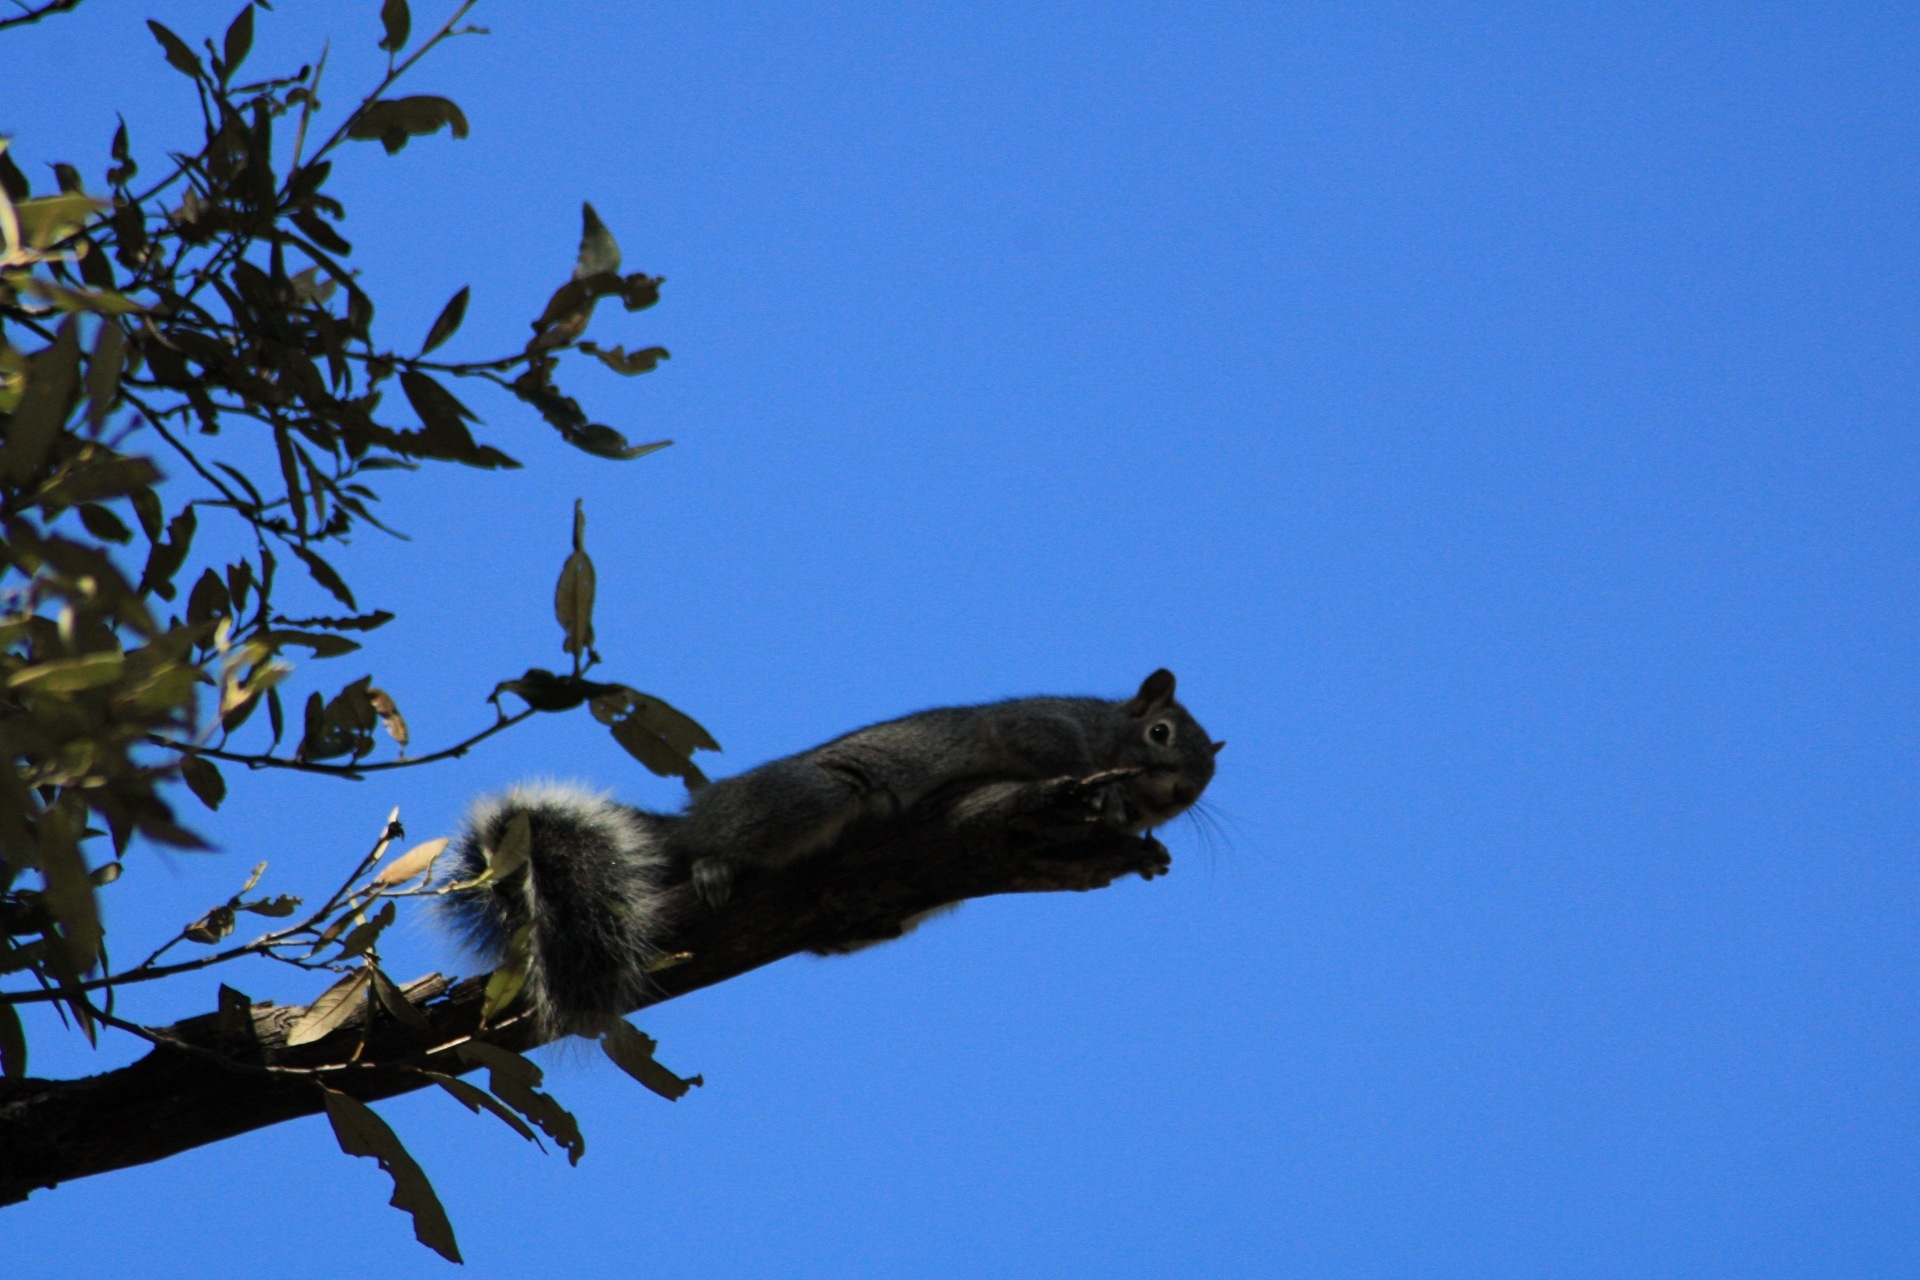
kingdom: Animalia
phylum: Chordata
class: Mammalia
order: Rodentia
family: Sciuridae
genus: Sciurus
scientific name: Sciurus arizonensis
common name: Arizona gray squirrel
